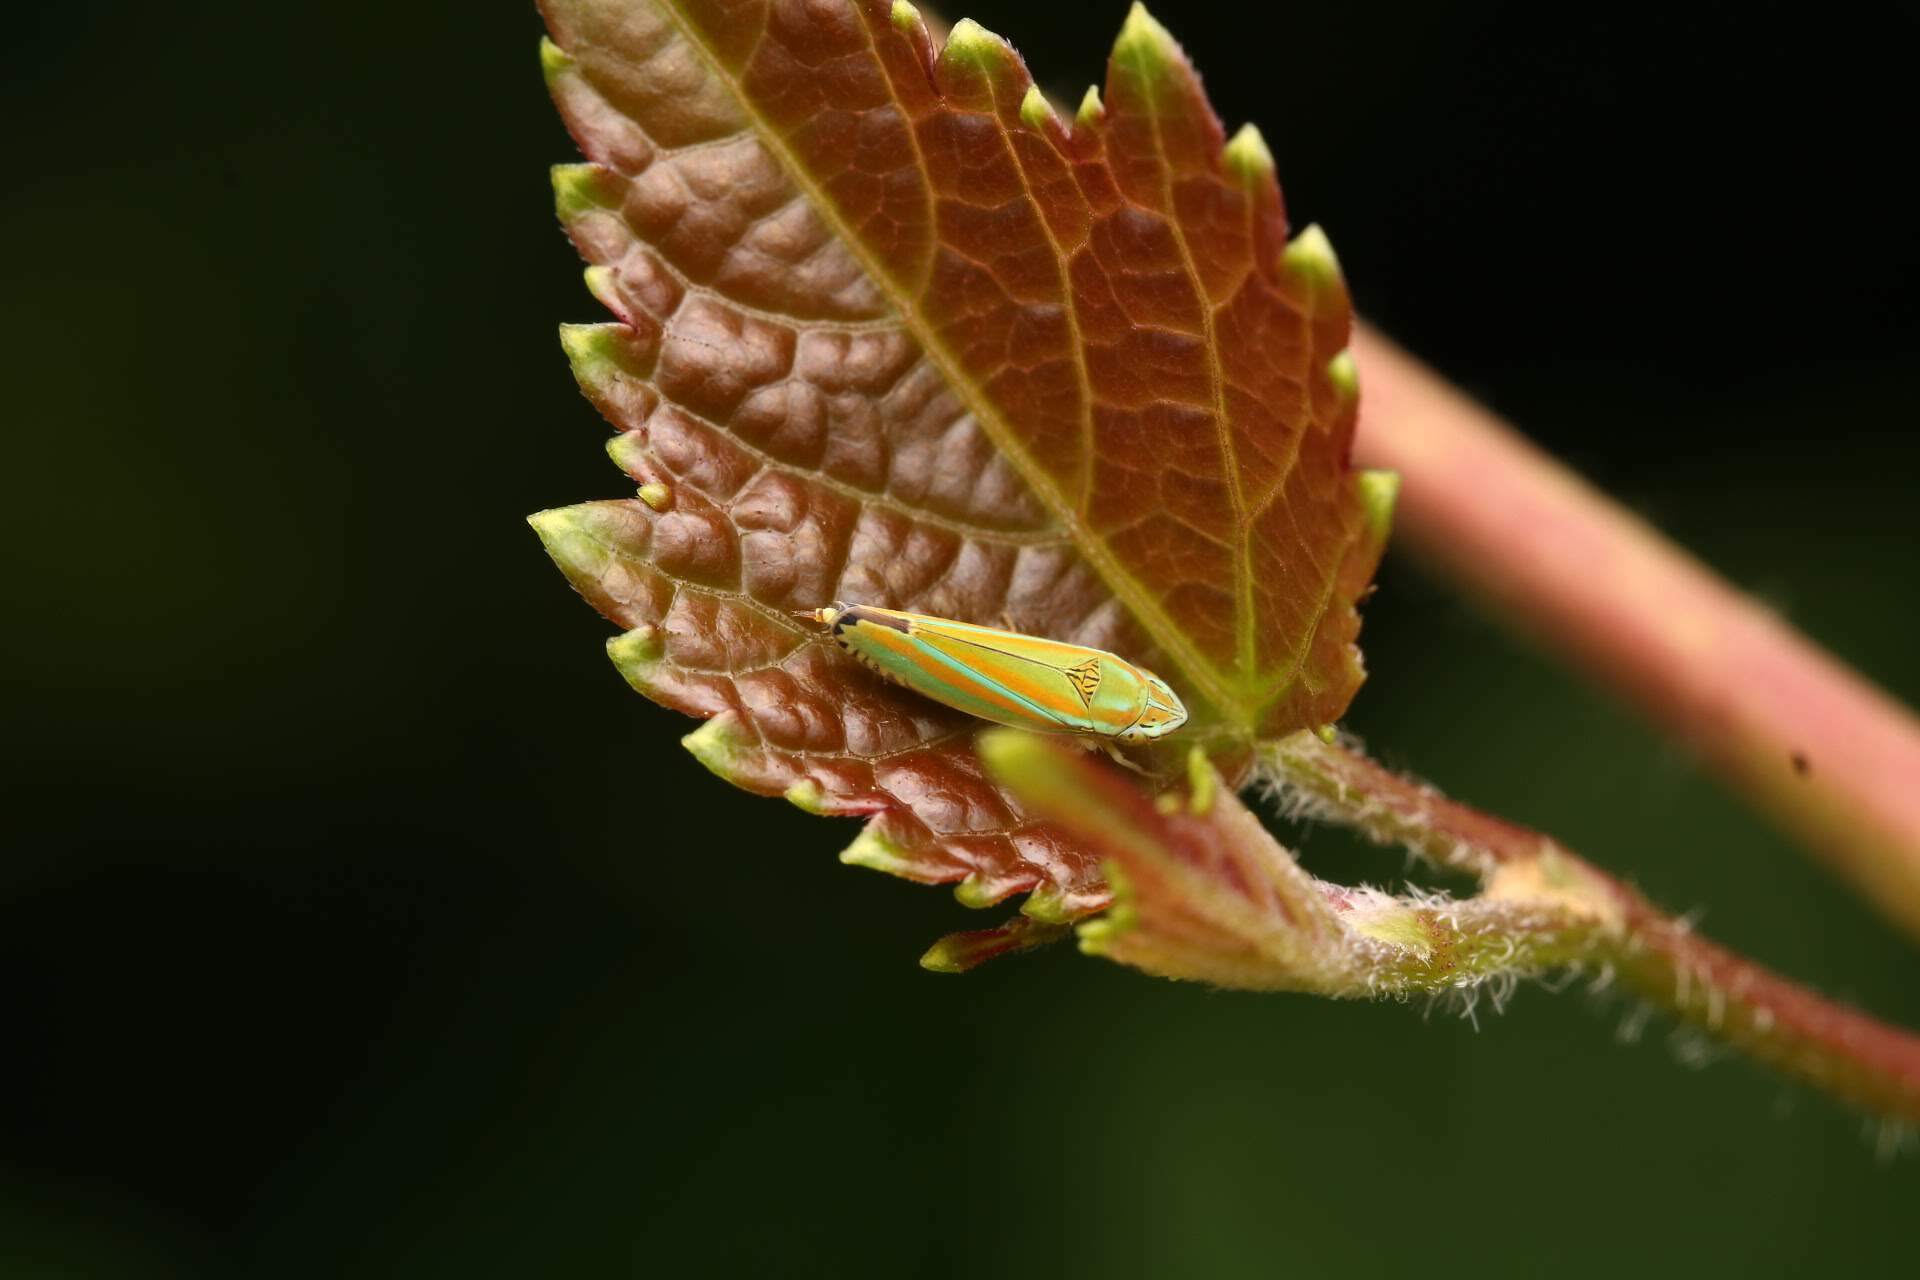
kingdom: Animalia
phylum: Arthropoda
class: Insecta
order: Hemiptera
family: Cicadellidae
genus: Graphocephala
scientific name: Graphocephala versuta
